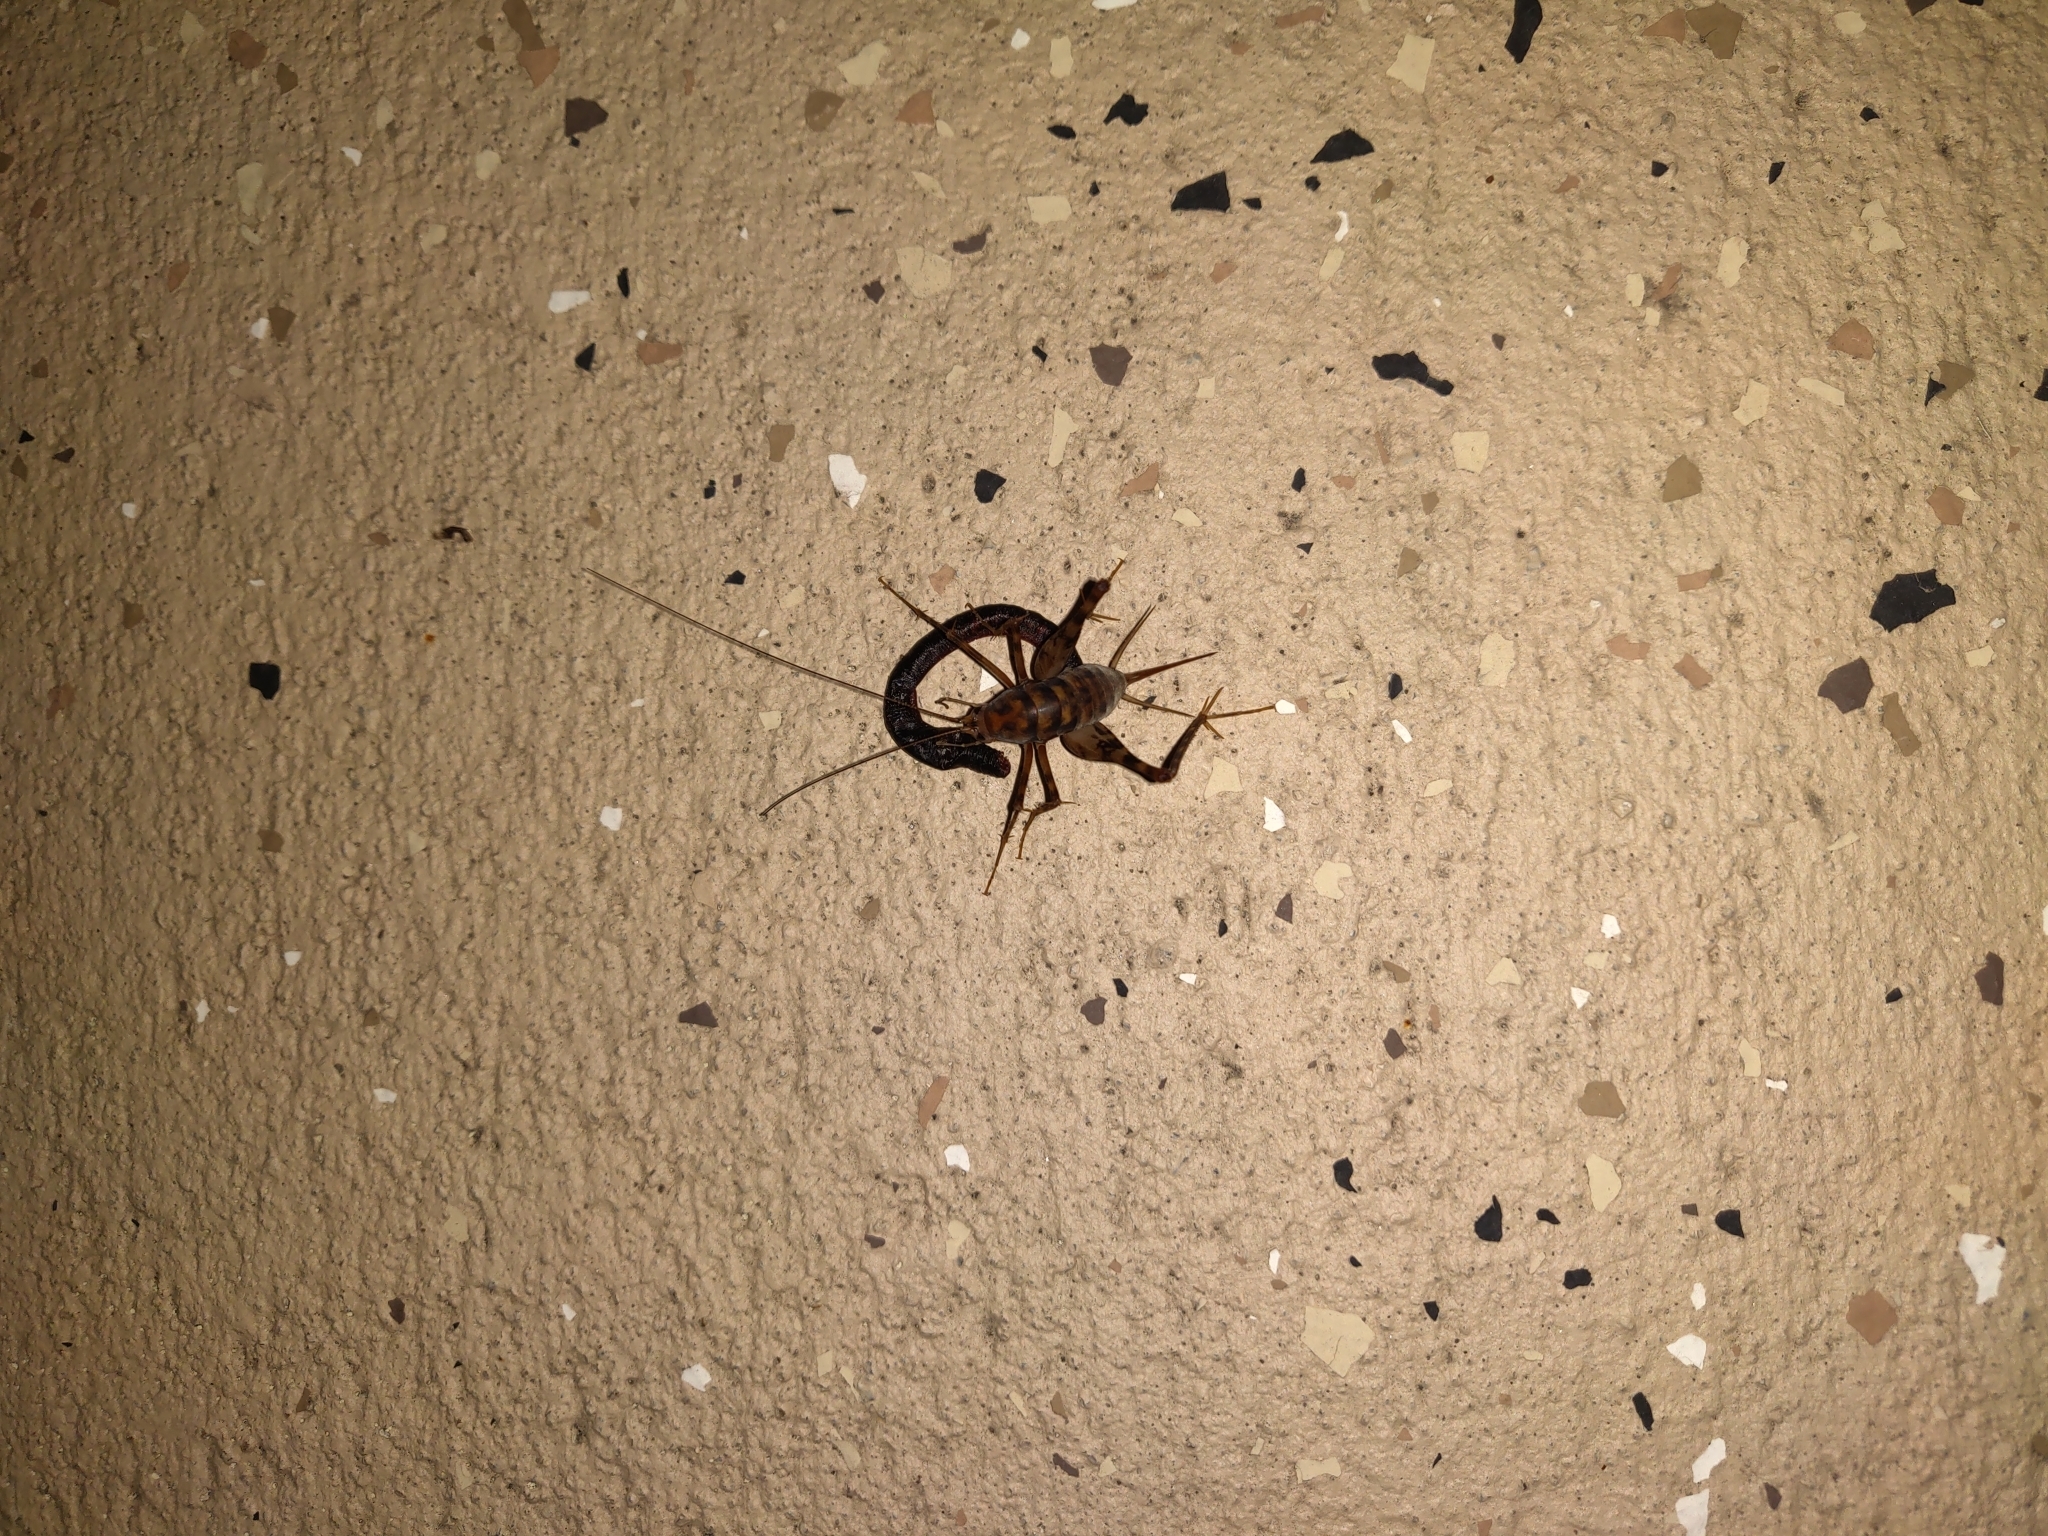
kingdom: Animalia
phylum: Arthropoda
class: Insecta
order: Orthoptera
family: Rhaphidophoridae
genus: Tachycines
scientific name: Tachycines asynamorus
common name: Greenhouse camel cricket
